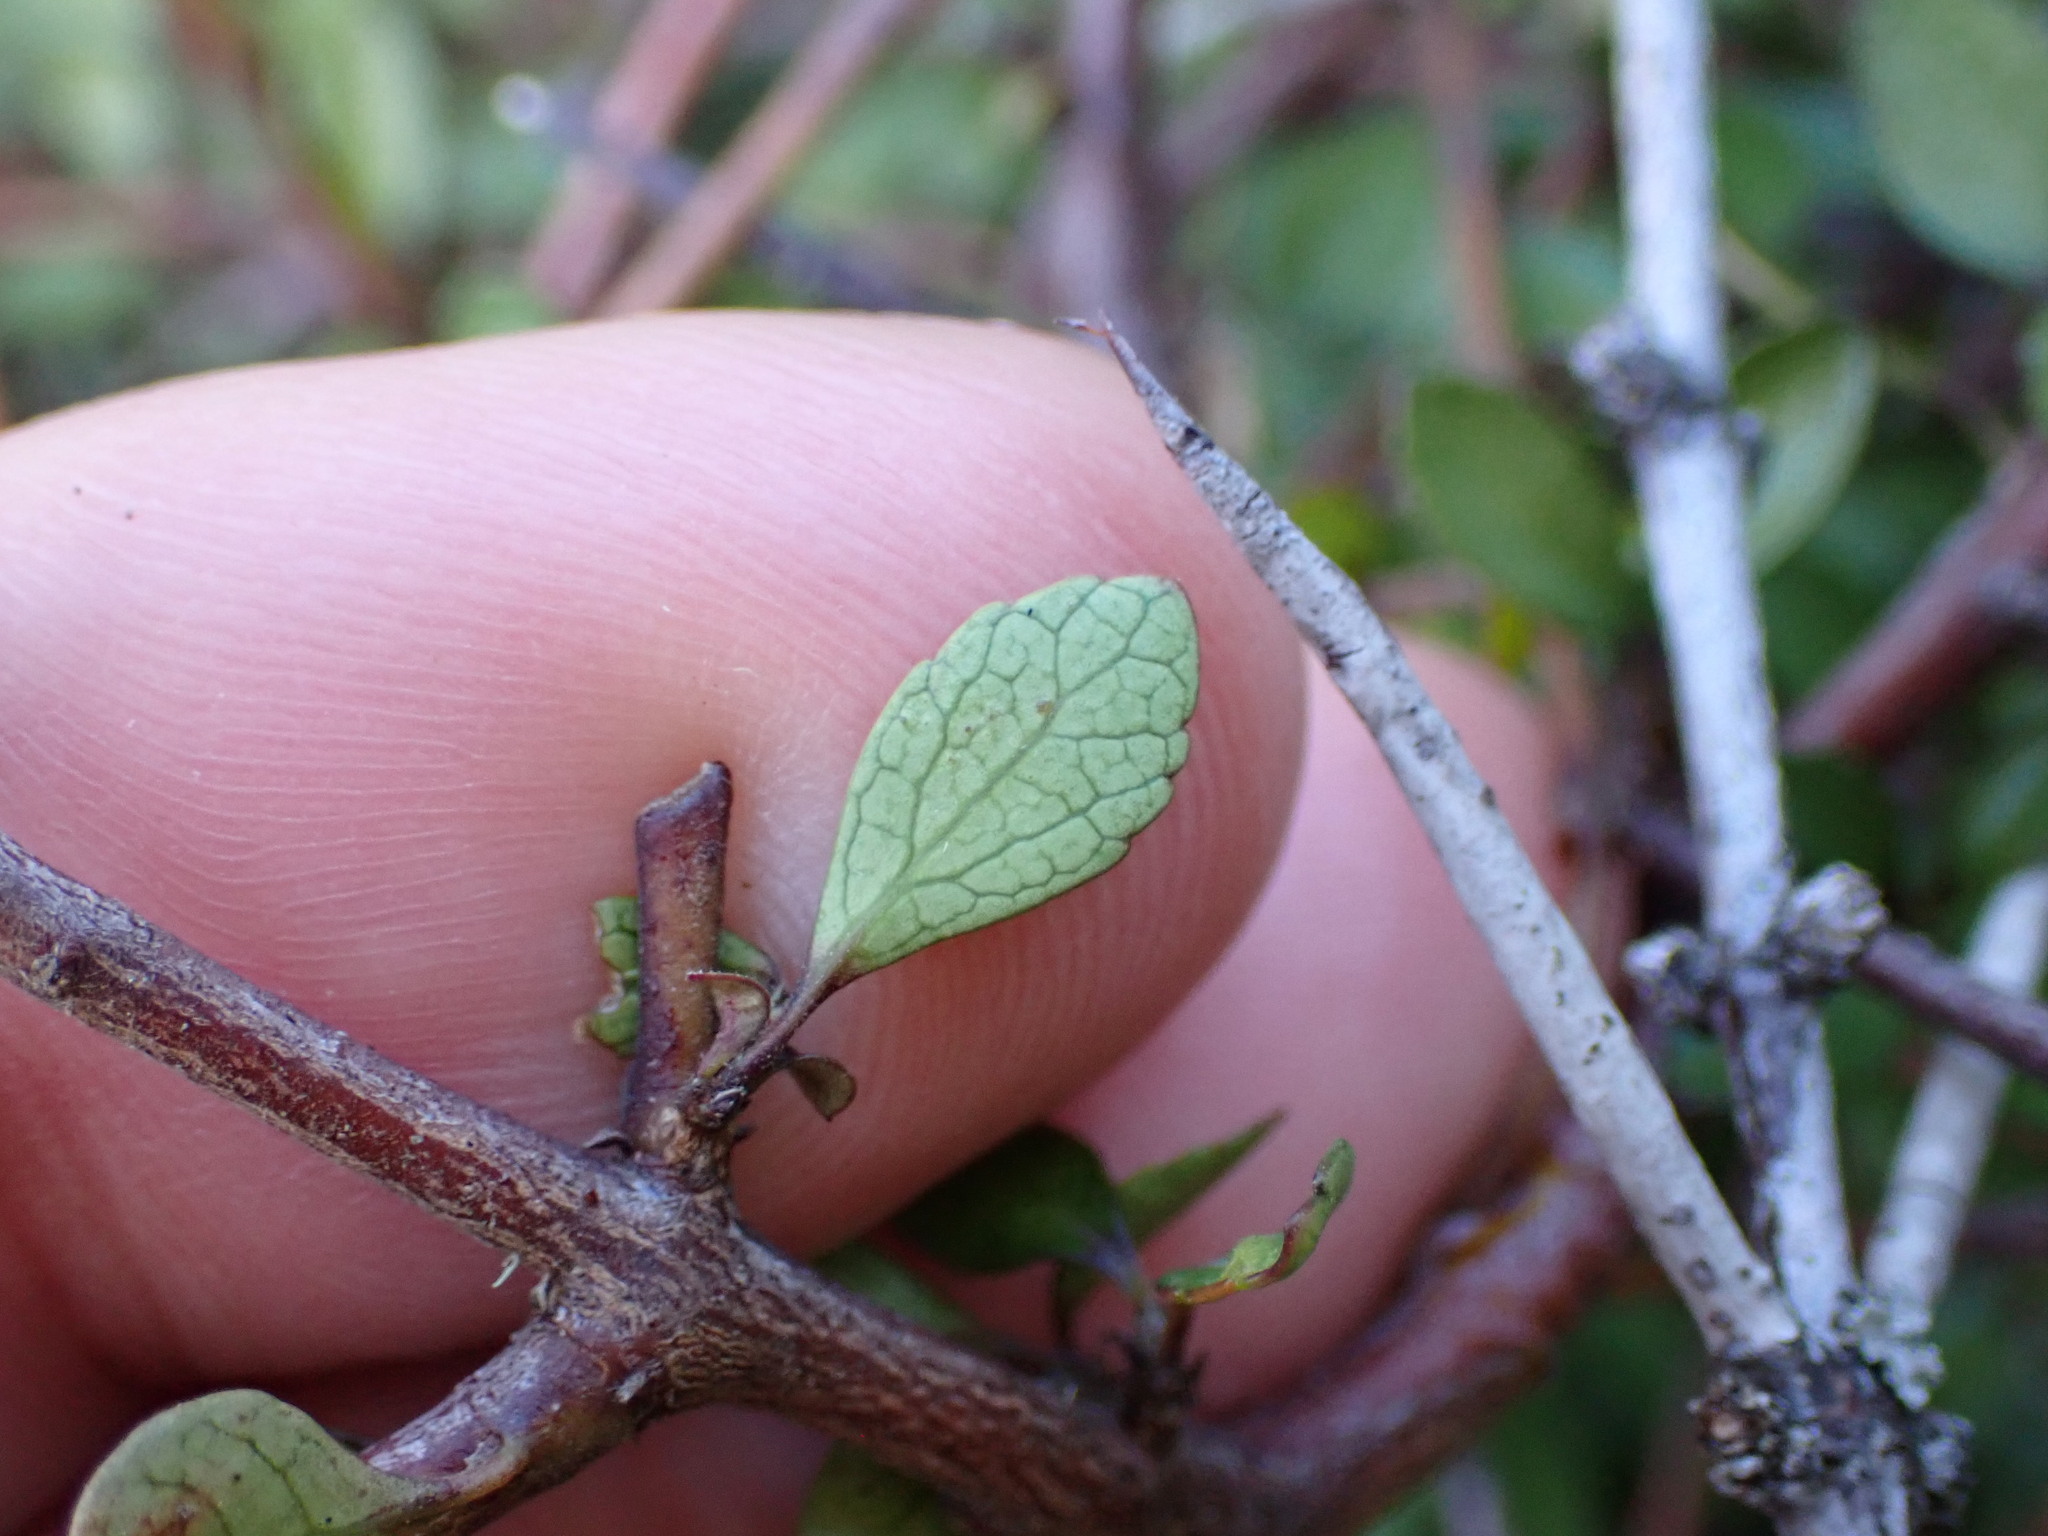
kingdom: Plantae
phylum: Tracheophyta
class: Magnoliopsida
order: Oxalidales
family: Elaeocarpaceae
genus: Aristotelia
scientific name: Aristotelia fruticosa
